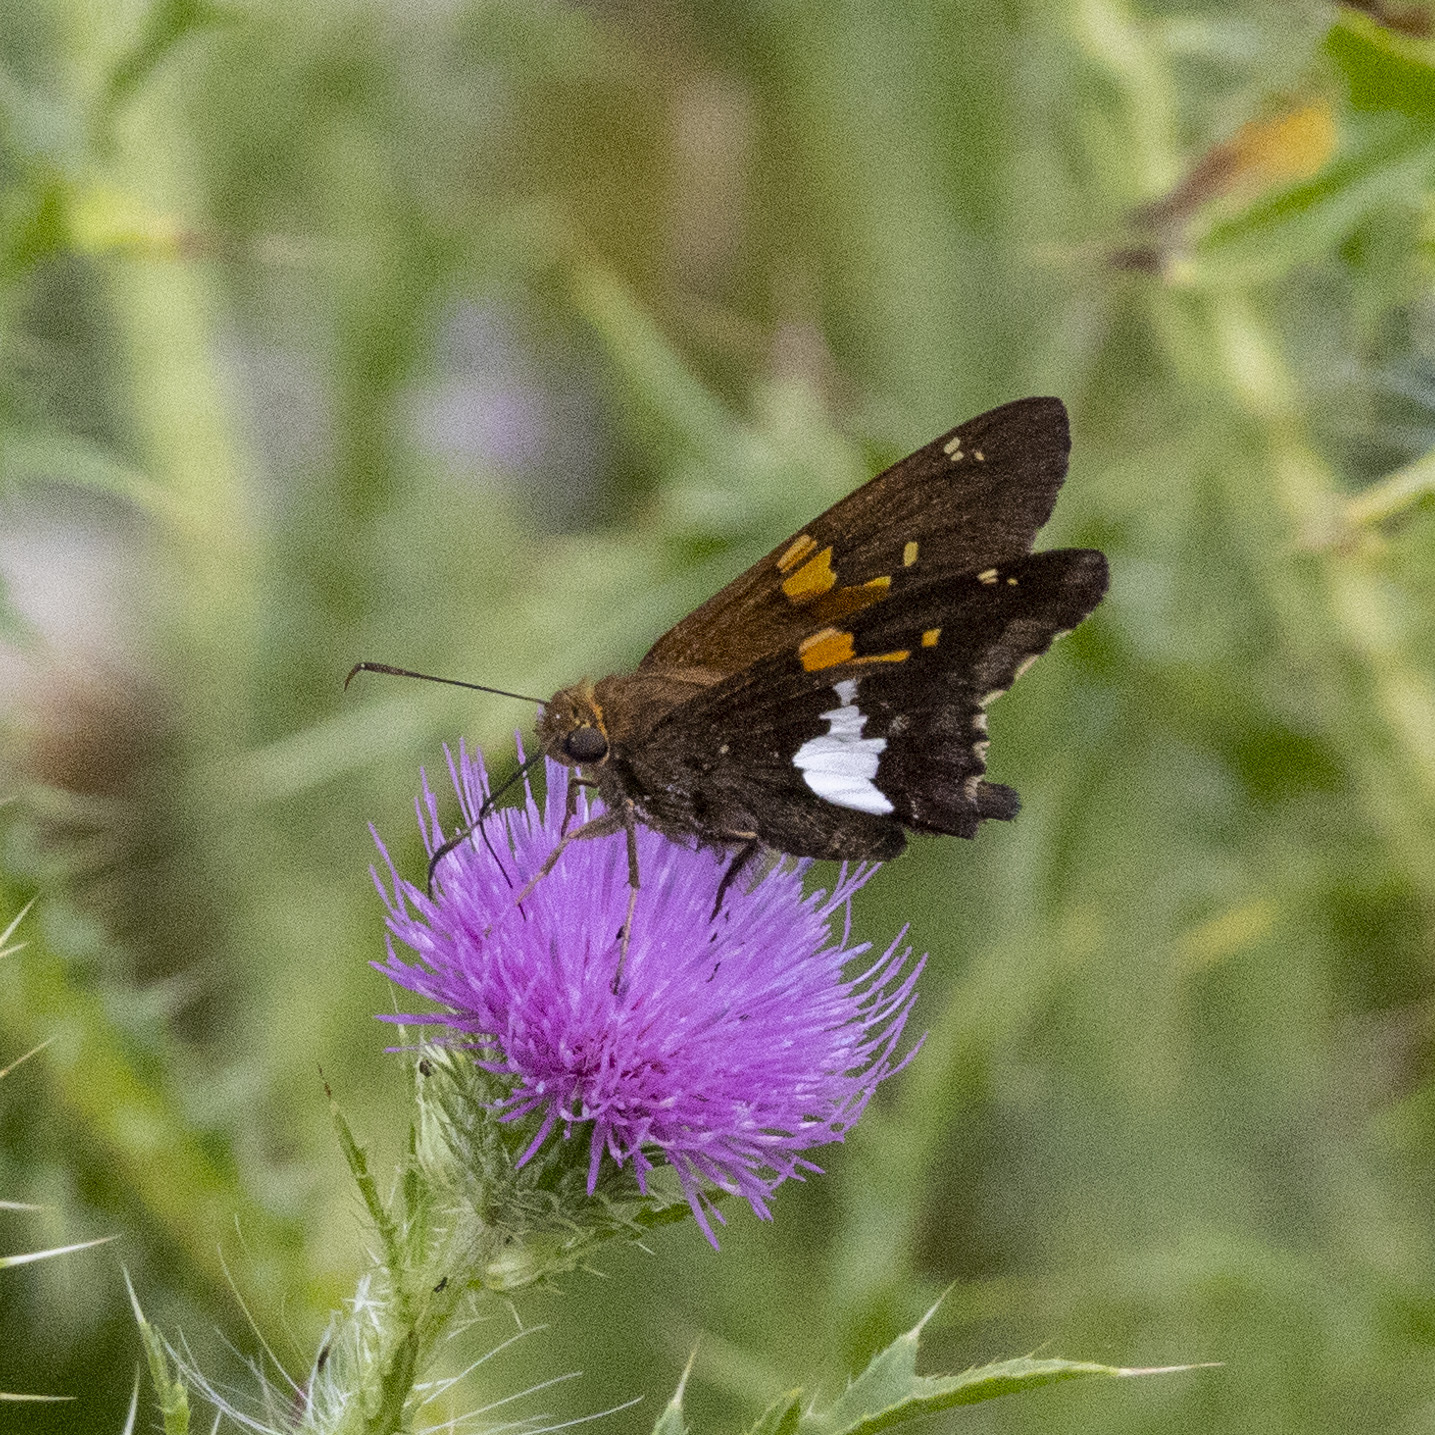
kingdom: Animalia
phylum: Arthropoda
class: Insecta
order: Lepidoptera
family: Hesperiidae
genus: Epargyreus
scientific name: Epargyreus clarus
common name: Silver-spotted skipper
